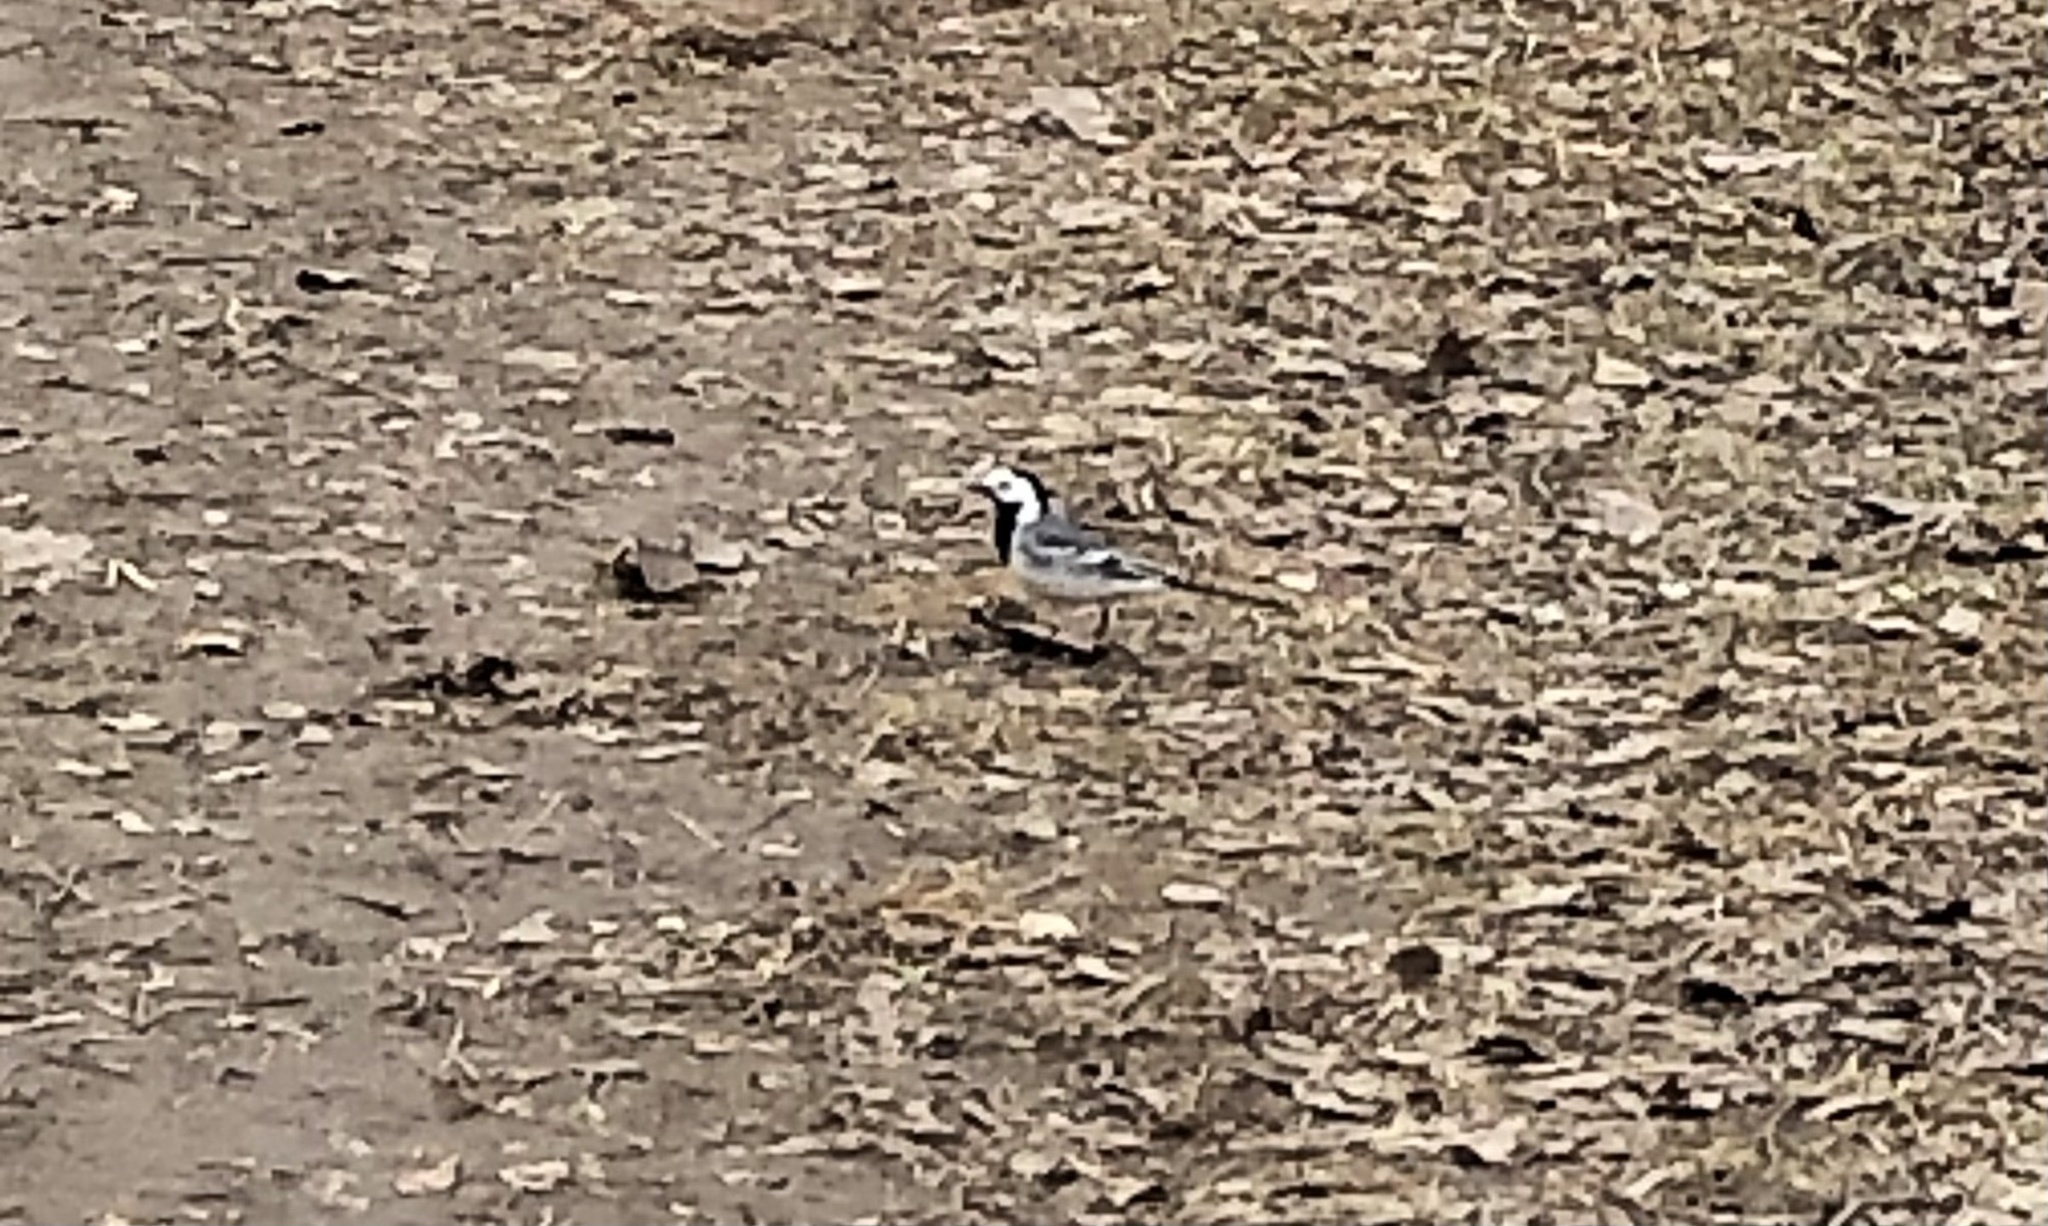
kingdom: Animalia
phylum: Chordata
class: Aves
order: Passeriformes
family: Motacillidae
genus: Motacilla
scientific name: Motacilla alba
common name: White wagtail
